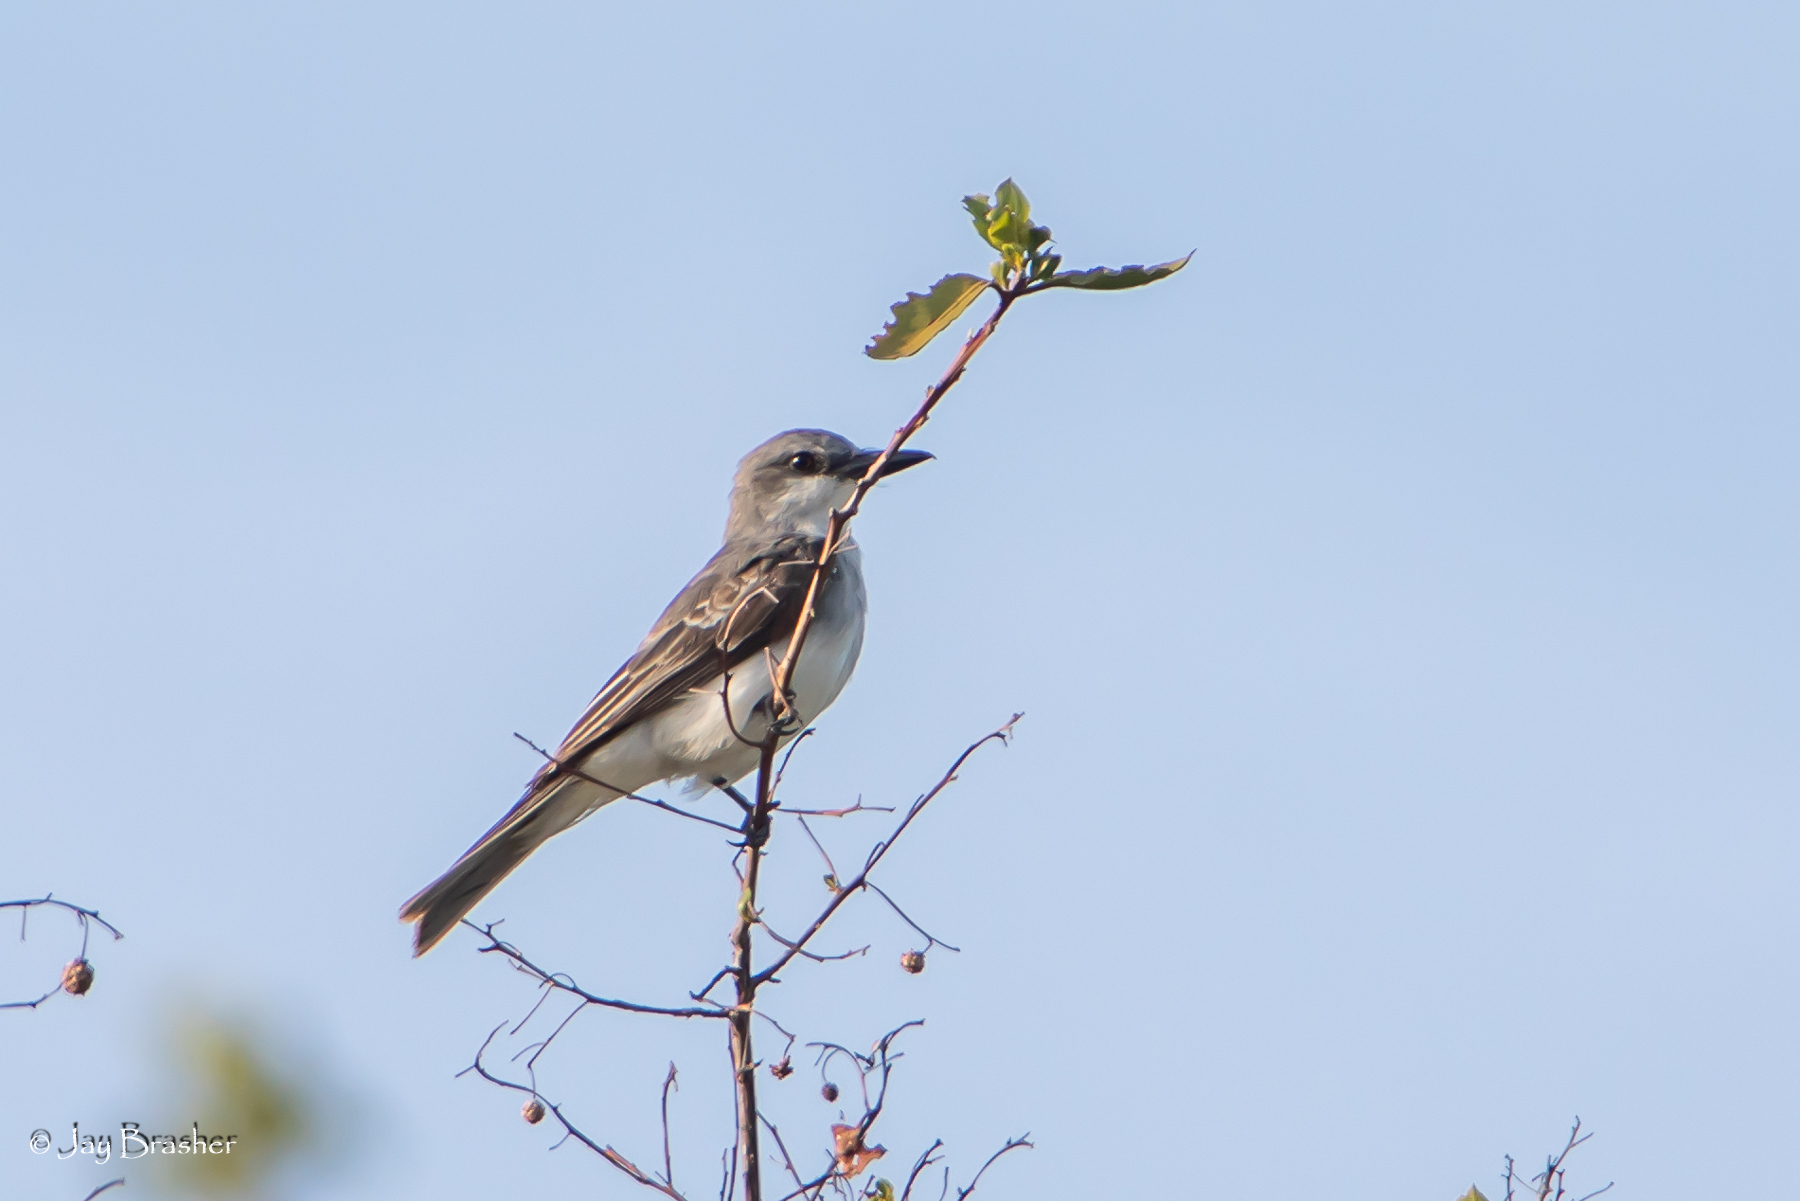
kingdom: Animalia
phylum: Chordata
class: Aves
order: Passeriformes
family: Tyrannidae
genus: Tyrannus
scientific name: Tyrannus dominicensis
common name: Gray kingbird
